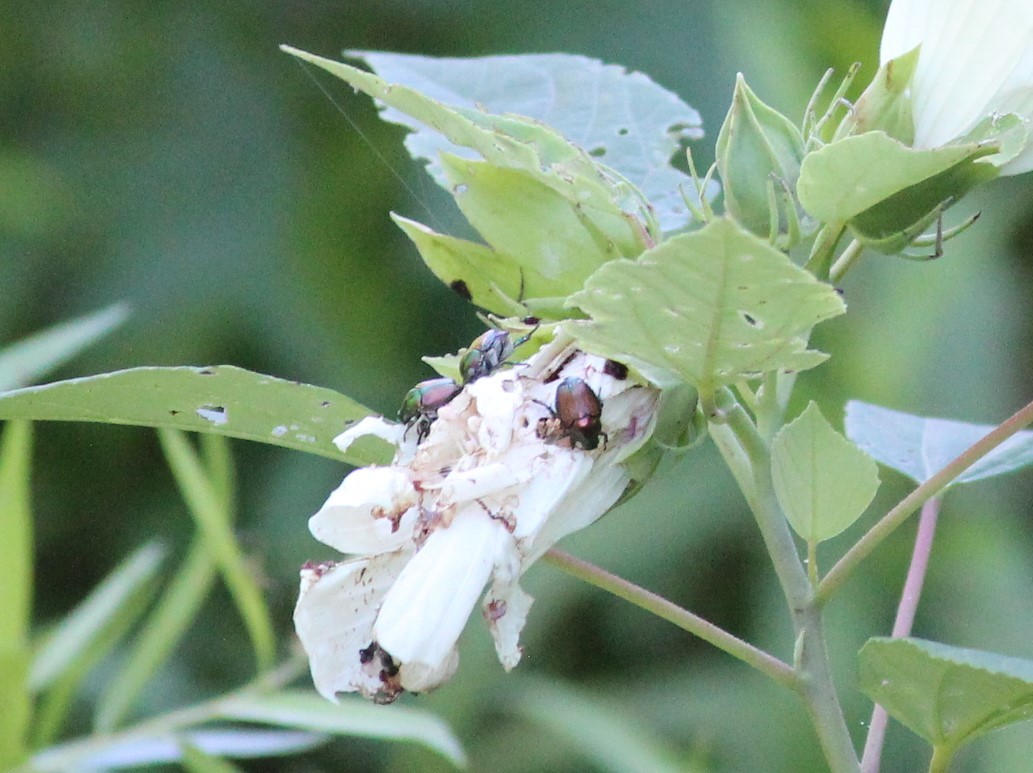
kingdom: Animalia
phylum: Arthropoda
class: Insecta
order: Coleoptera
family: Scarabaeidae
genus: Popillia
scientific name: Popillia japonica
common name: Japanese beetle
